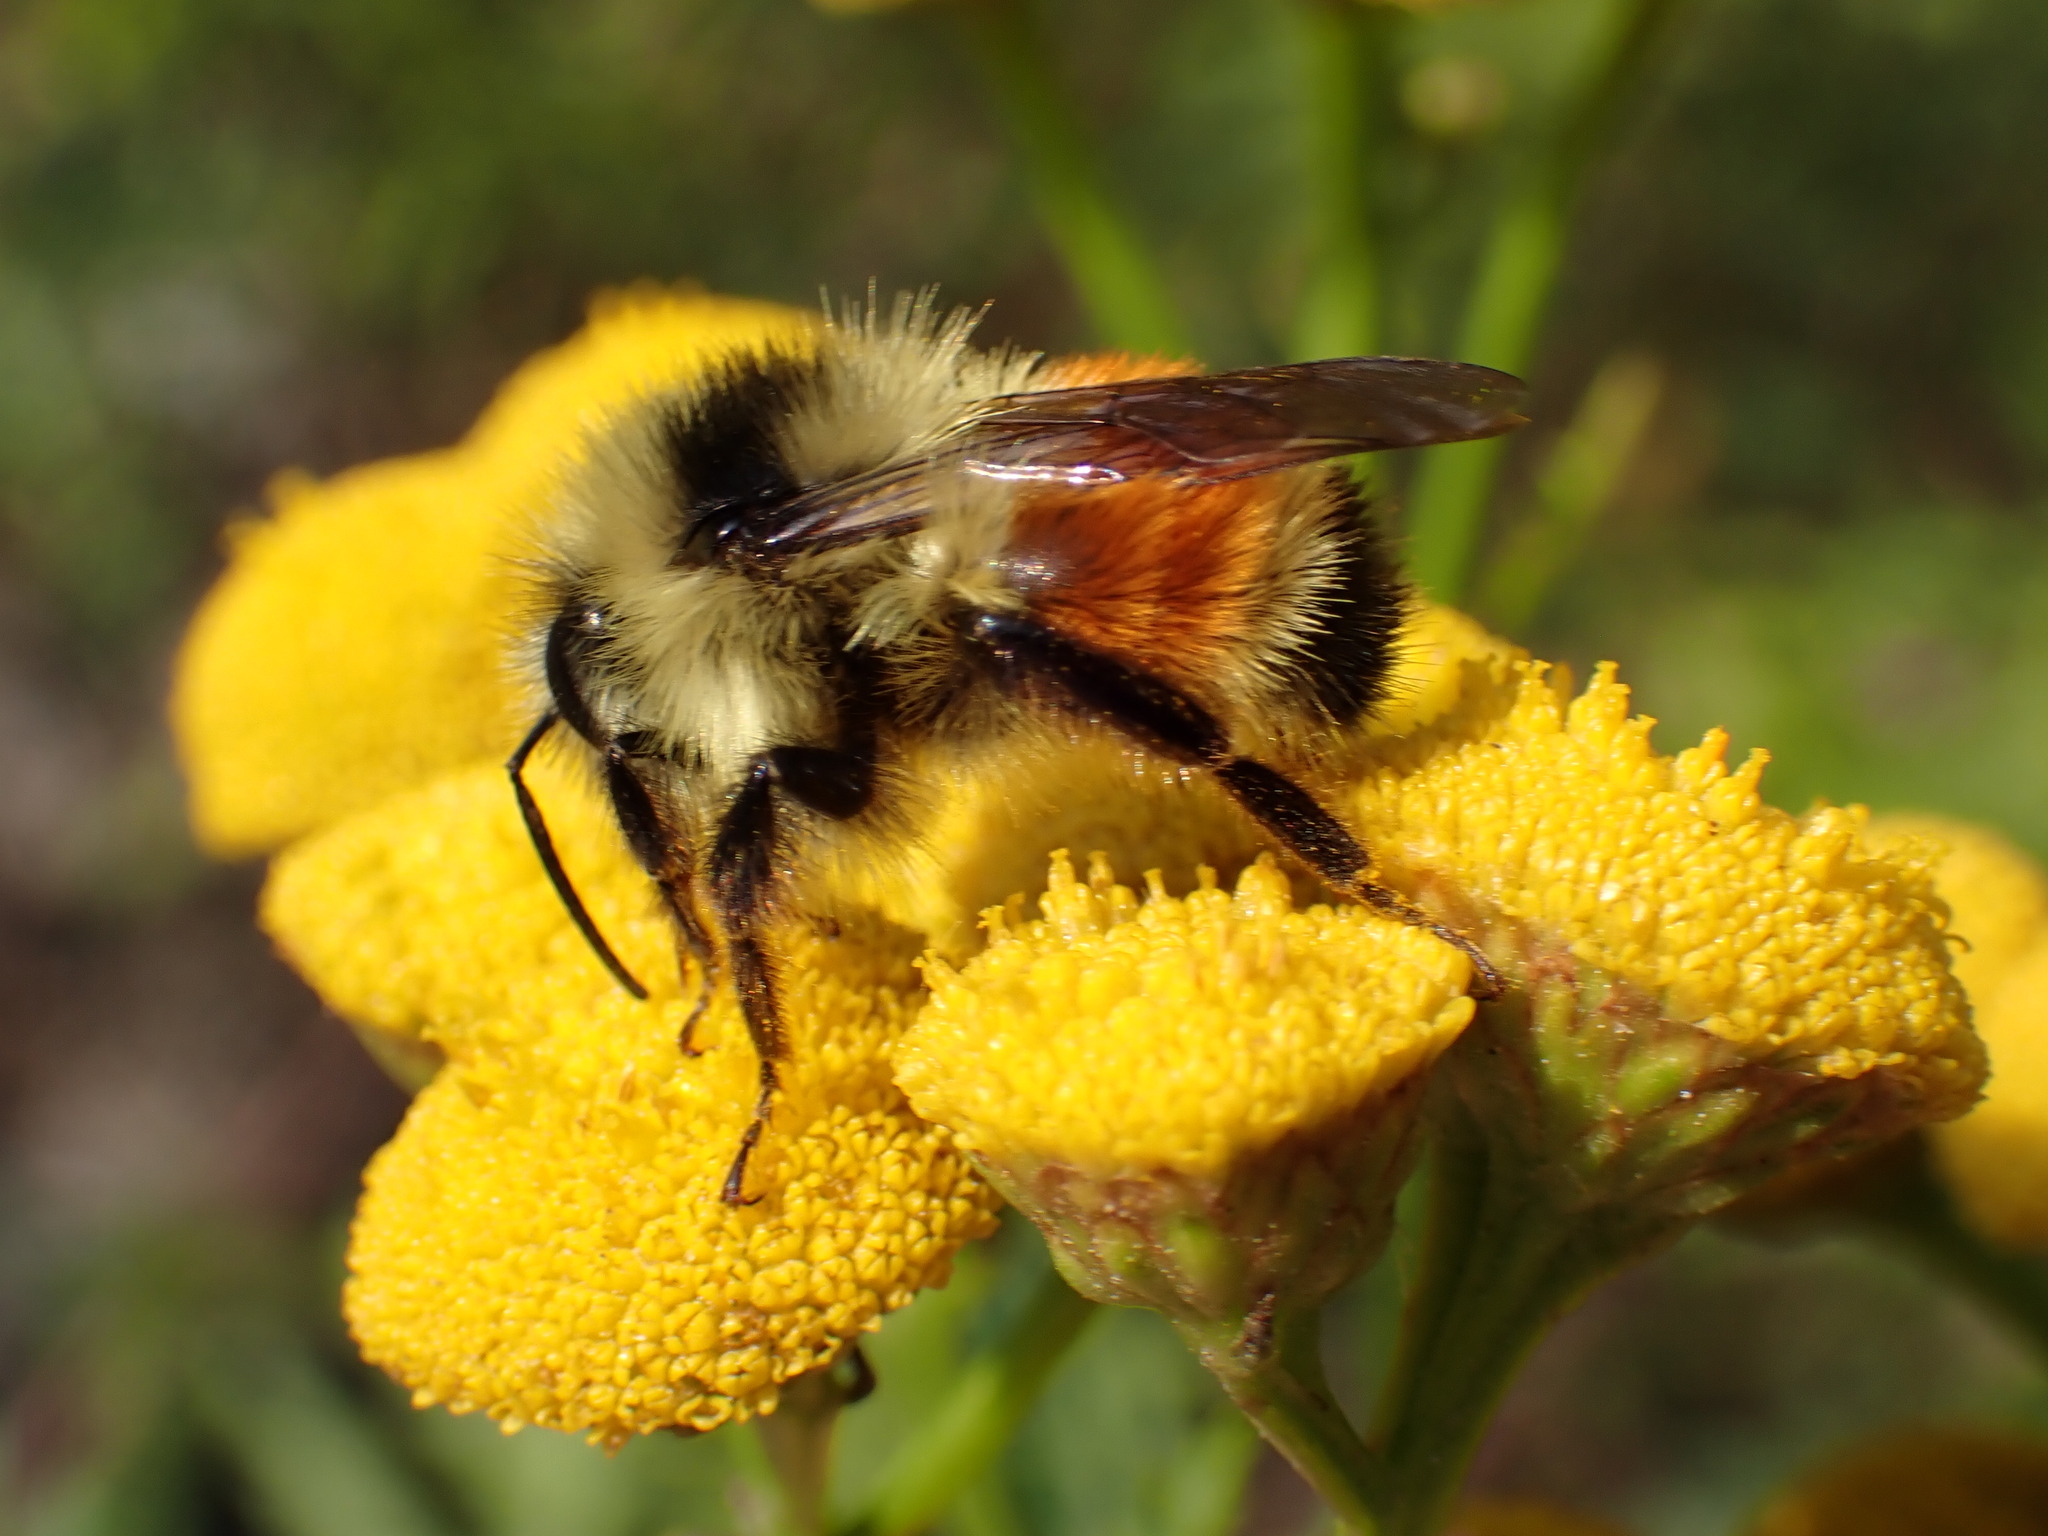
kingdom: Animalia
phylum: Arthropoda
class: Insecta
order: Hymenoptera
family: Apidae
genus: Bombus
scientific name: Bombus ternarius
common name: Tri-colored bumble bee
